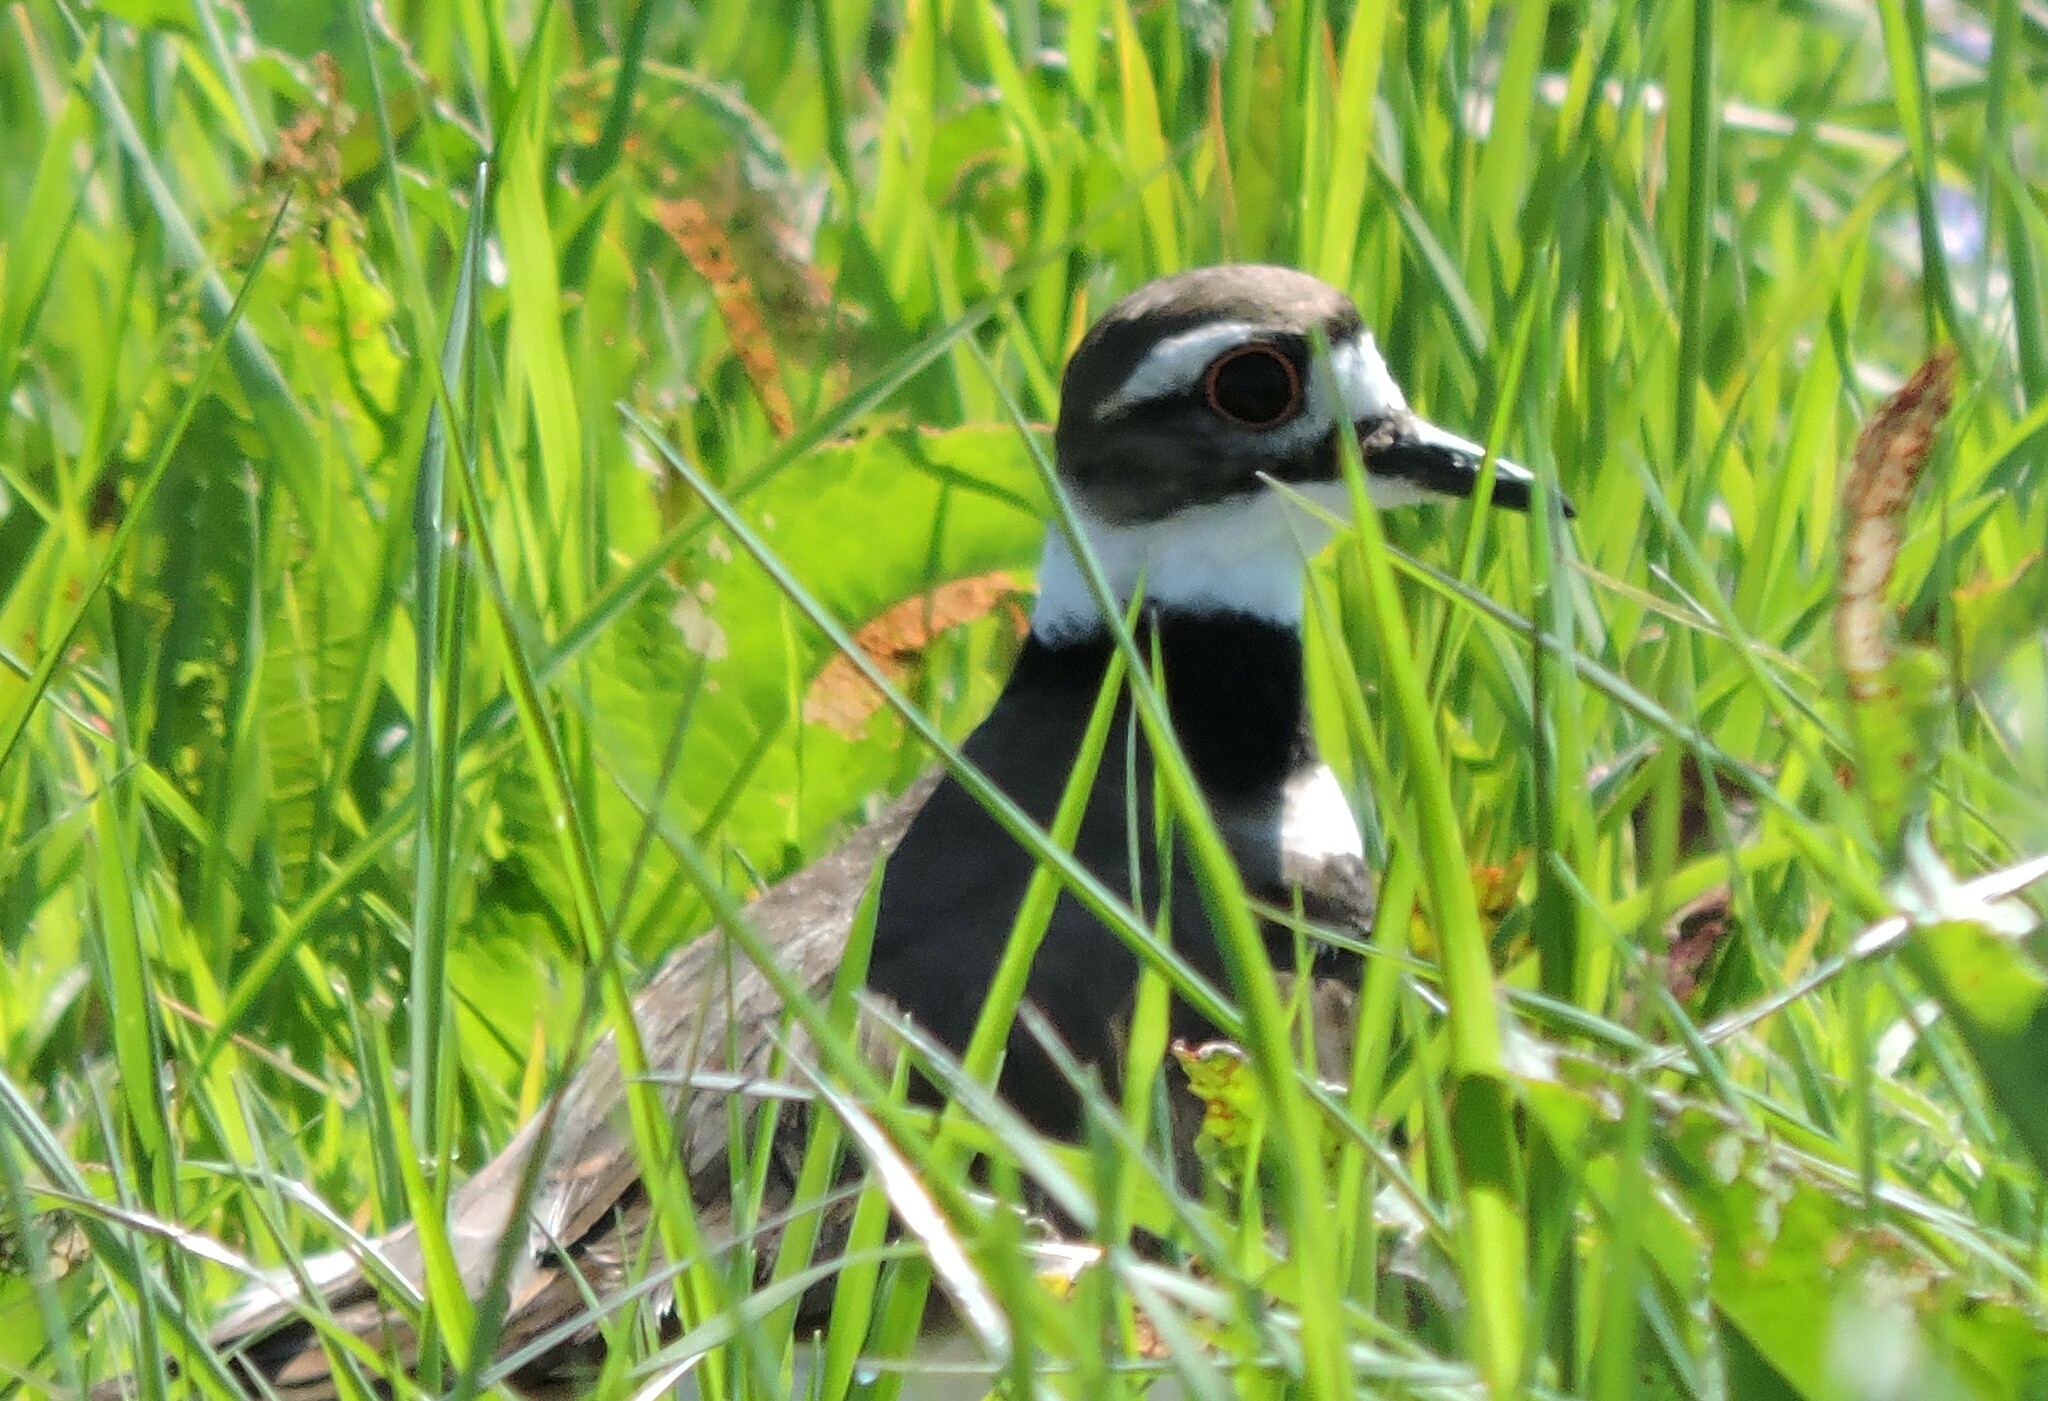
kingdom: Animalia
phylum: Chordata
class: Aves
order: Charadriiformes
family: Charadriidae
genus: Charadrius
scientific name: Charadrius vociferus
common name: Killdeer
